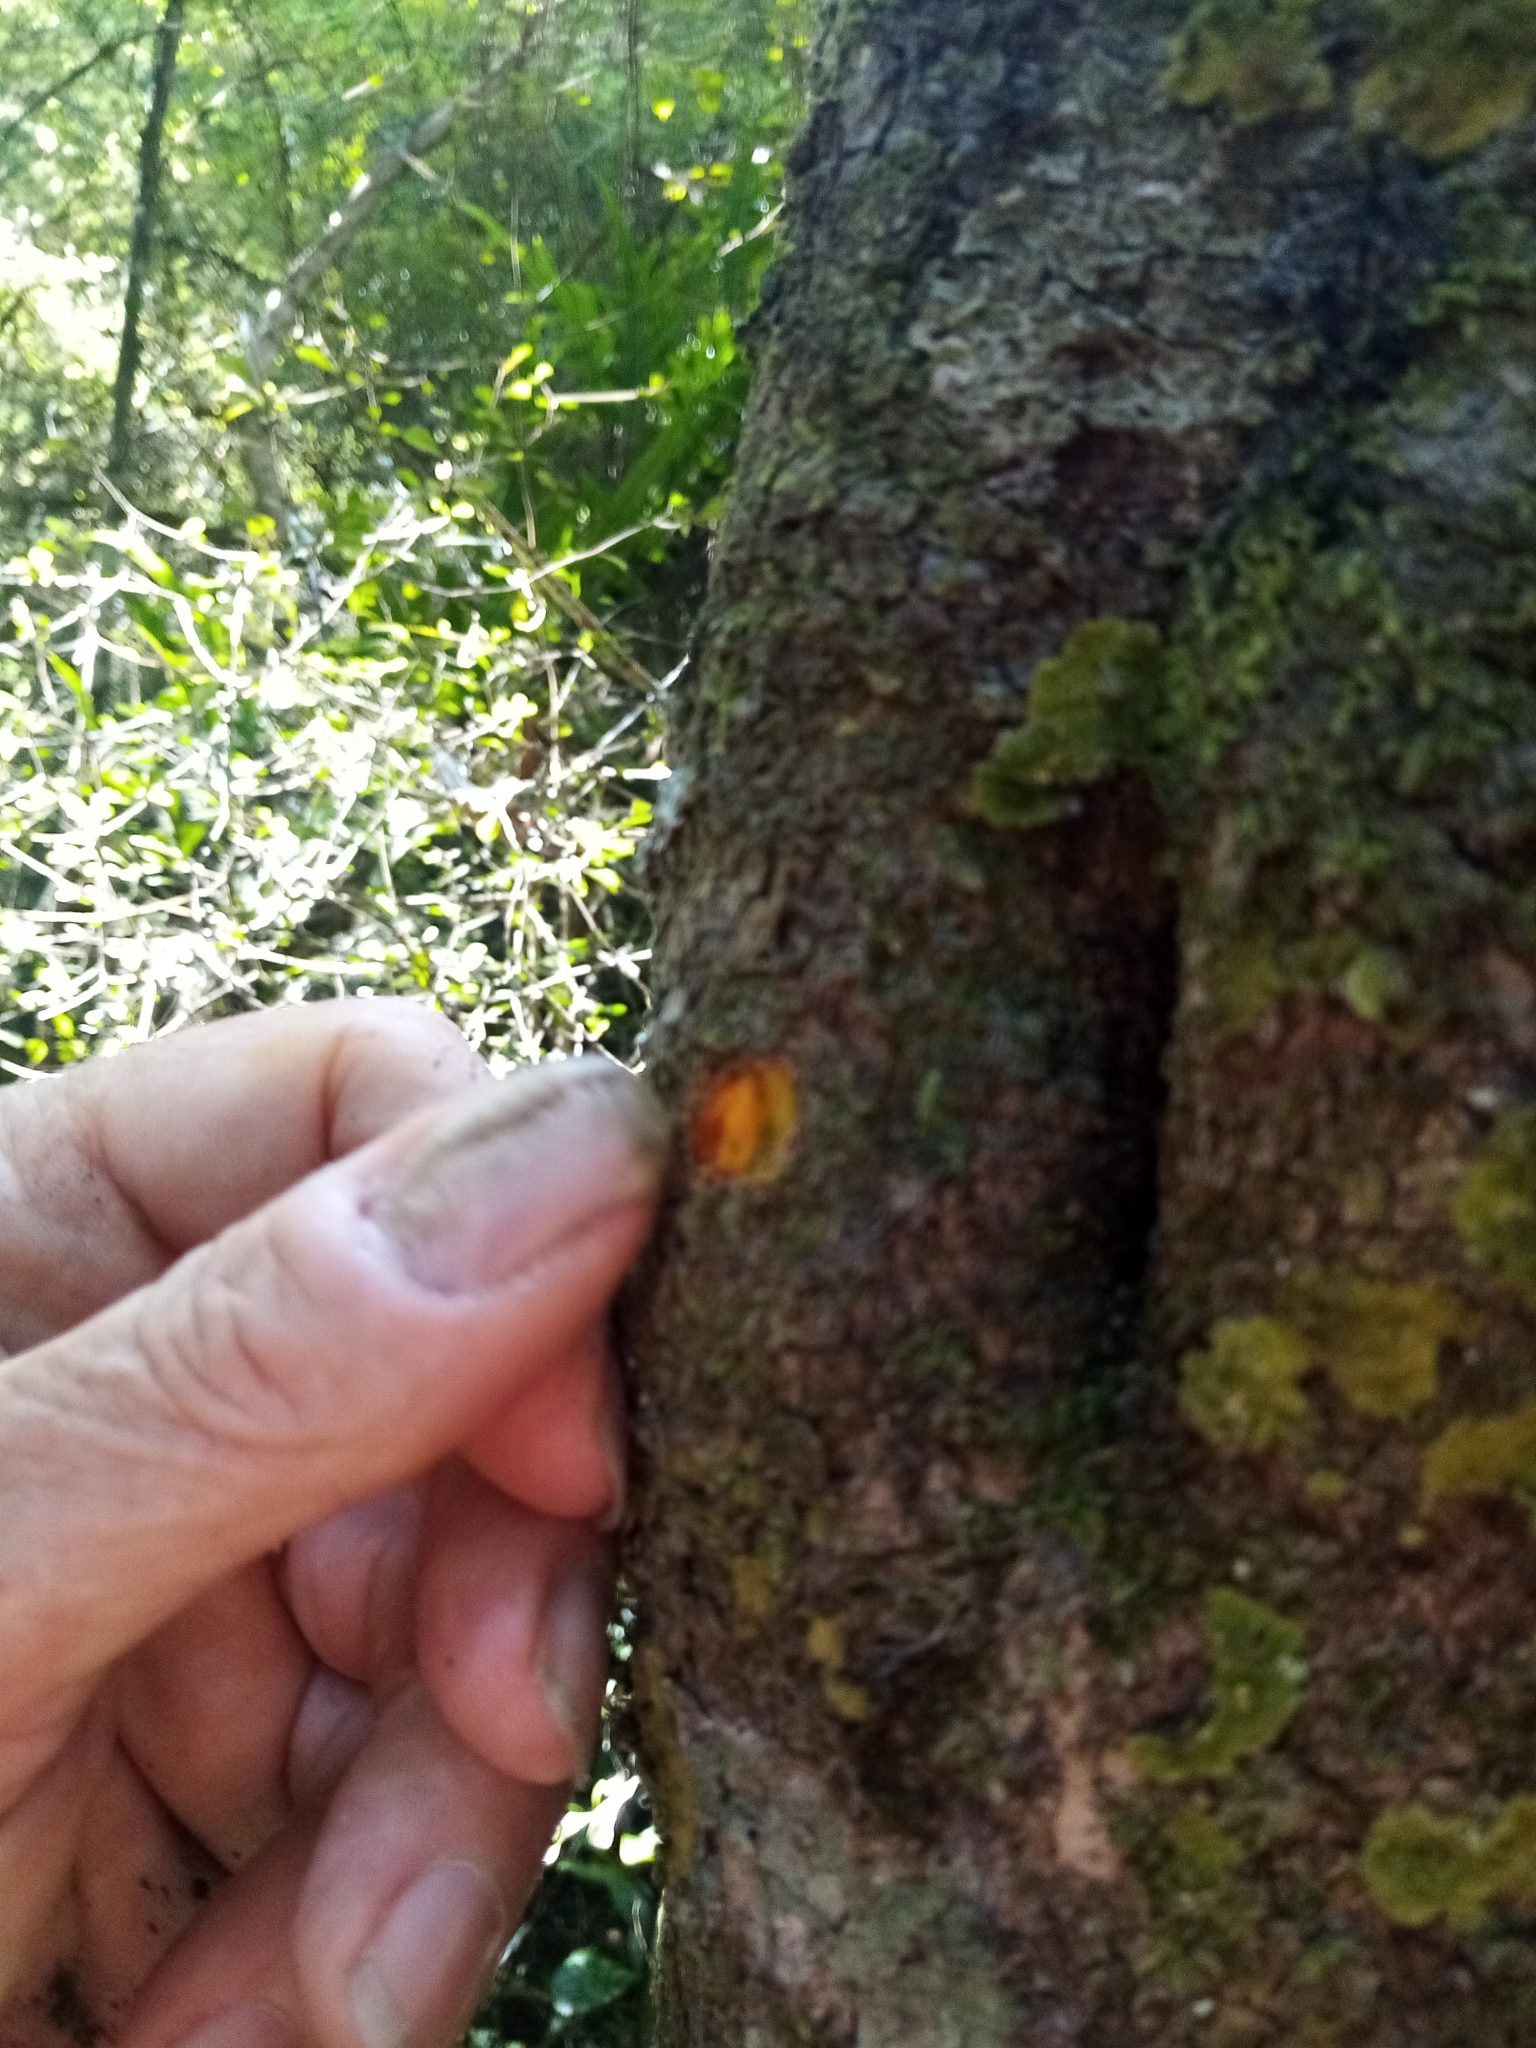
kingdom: Plantae
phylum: Tracheophyta
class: Magnoliopsida
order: Gentianales
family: Rubiaceae
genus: Coprosma
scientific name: Coprosma pedicellata
